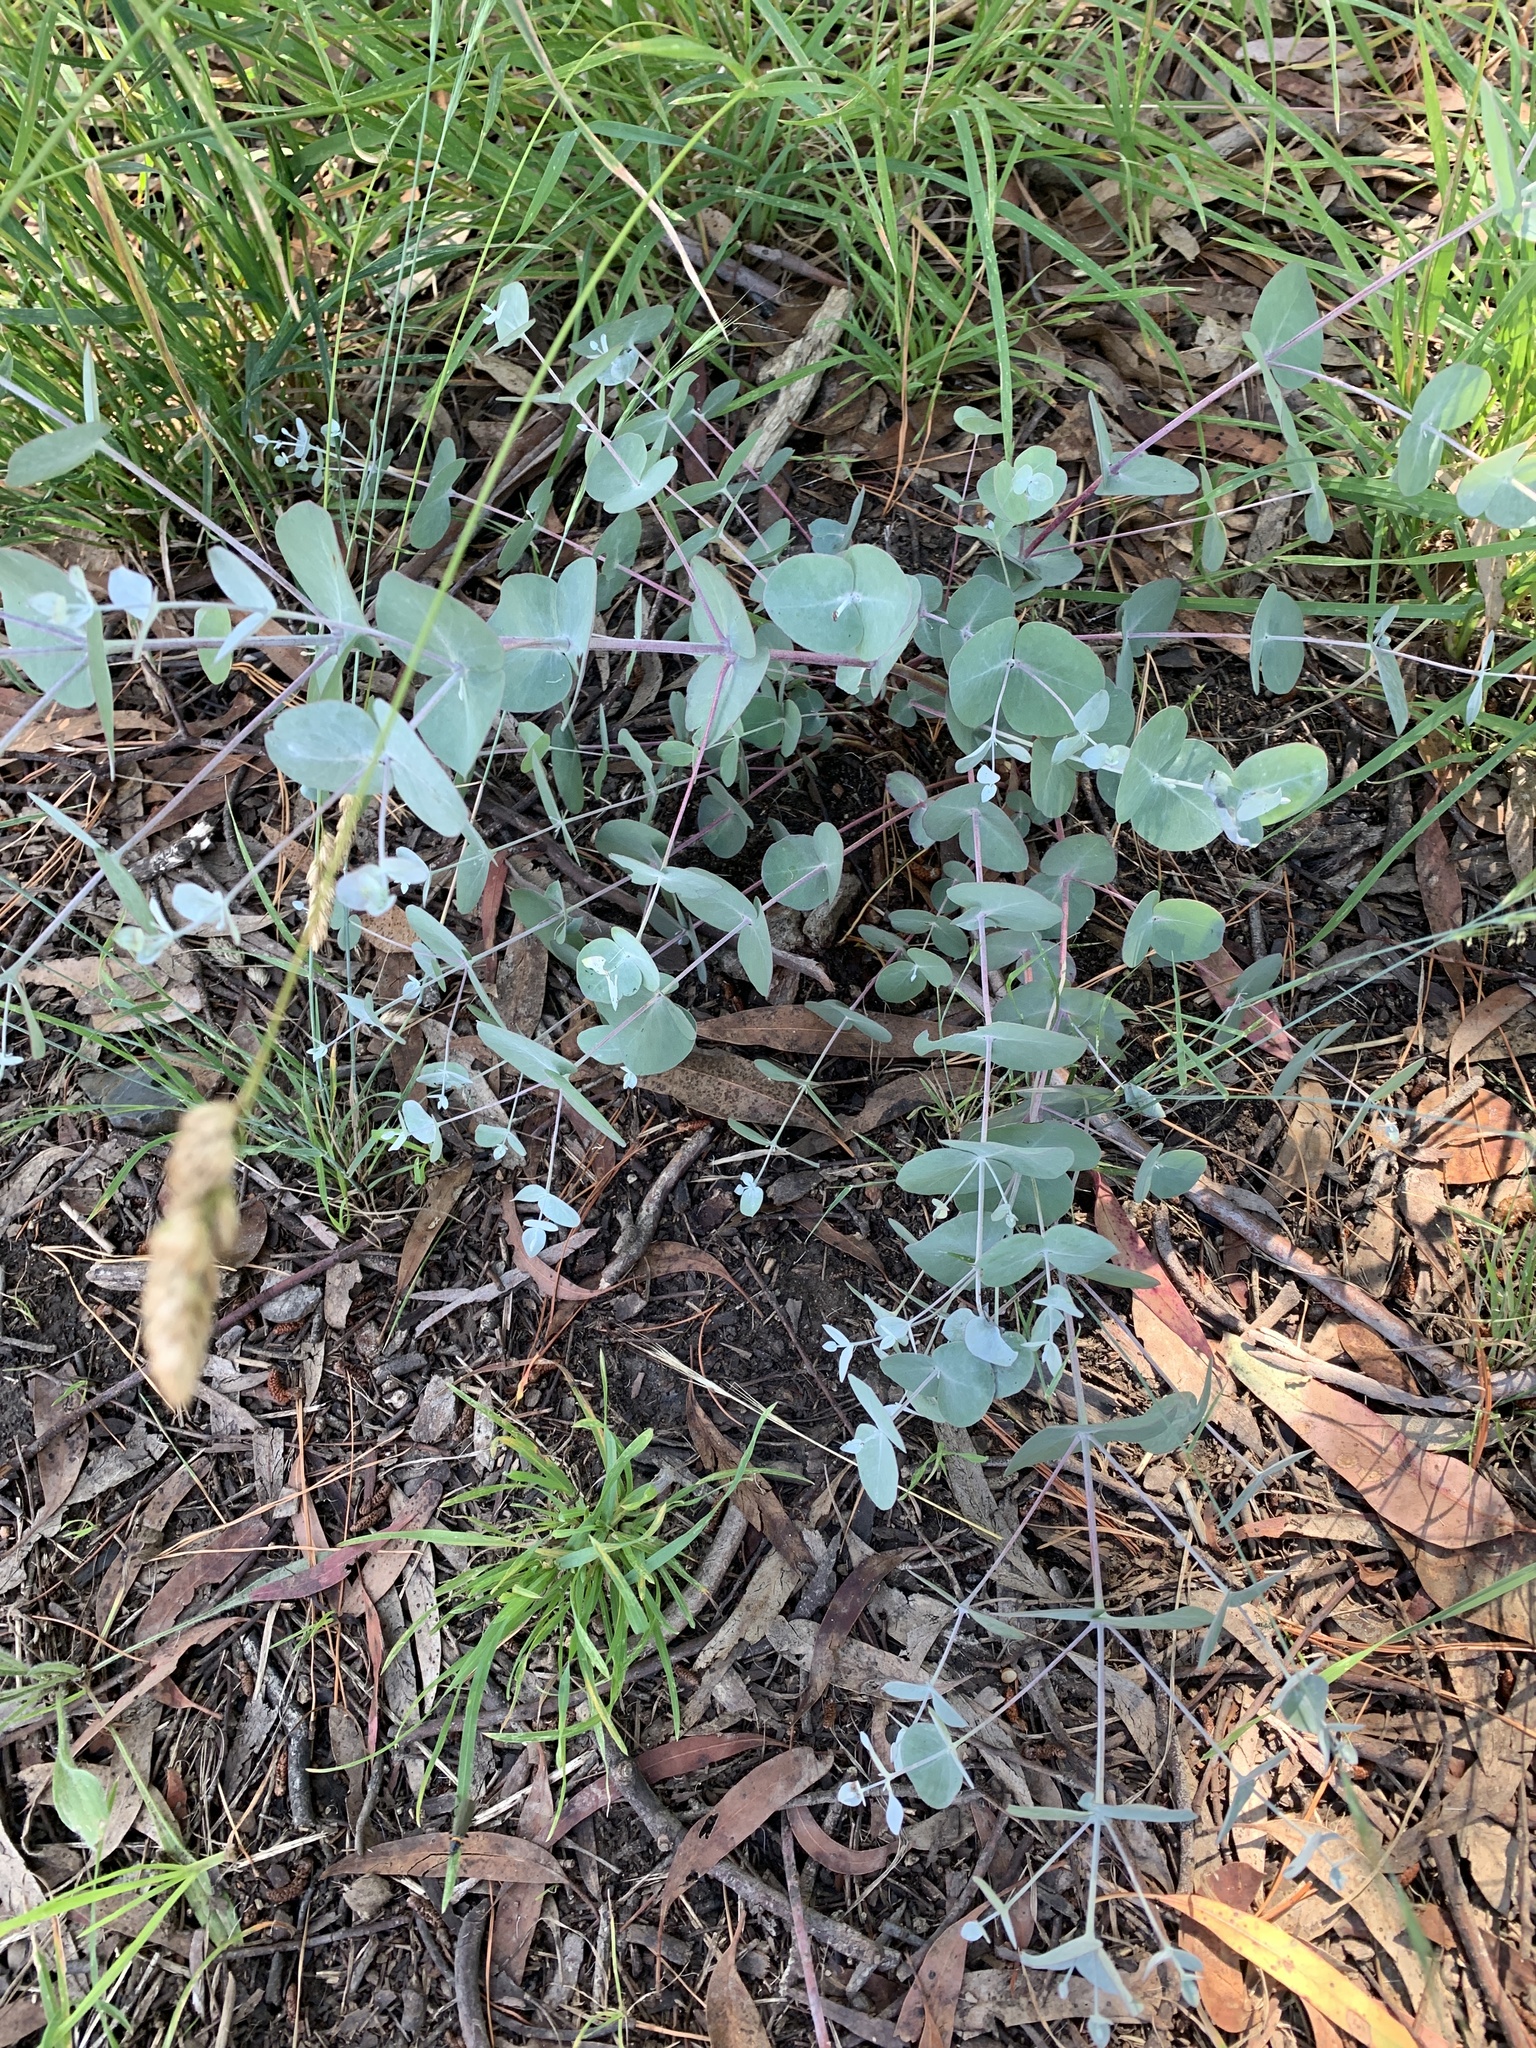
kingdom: Plantae
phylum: Tracheophyta
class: Magnoliopsida
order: Myrtales
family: Myrtaceae
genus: Eucalyptus
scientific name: Eucalyptus rubida
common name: Candlebark
